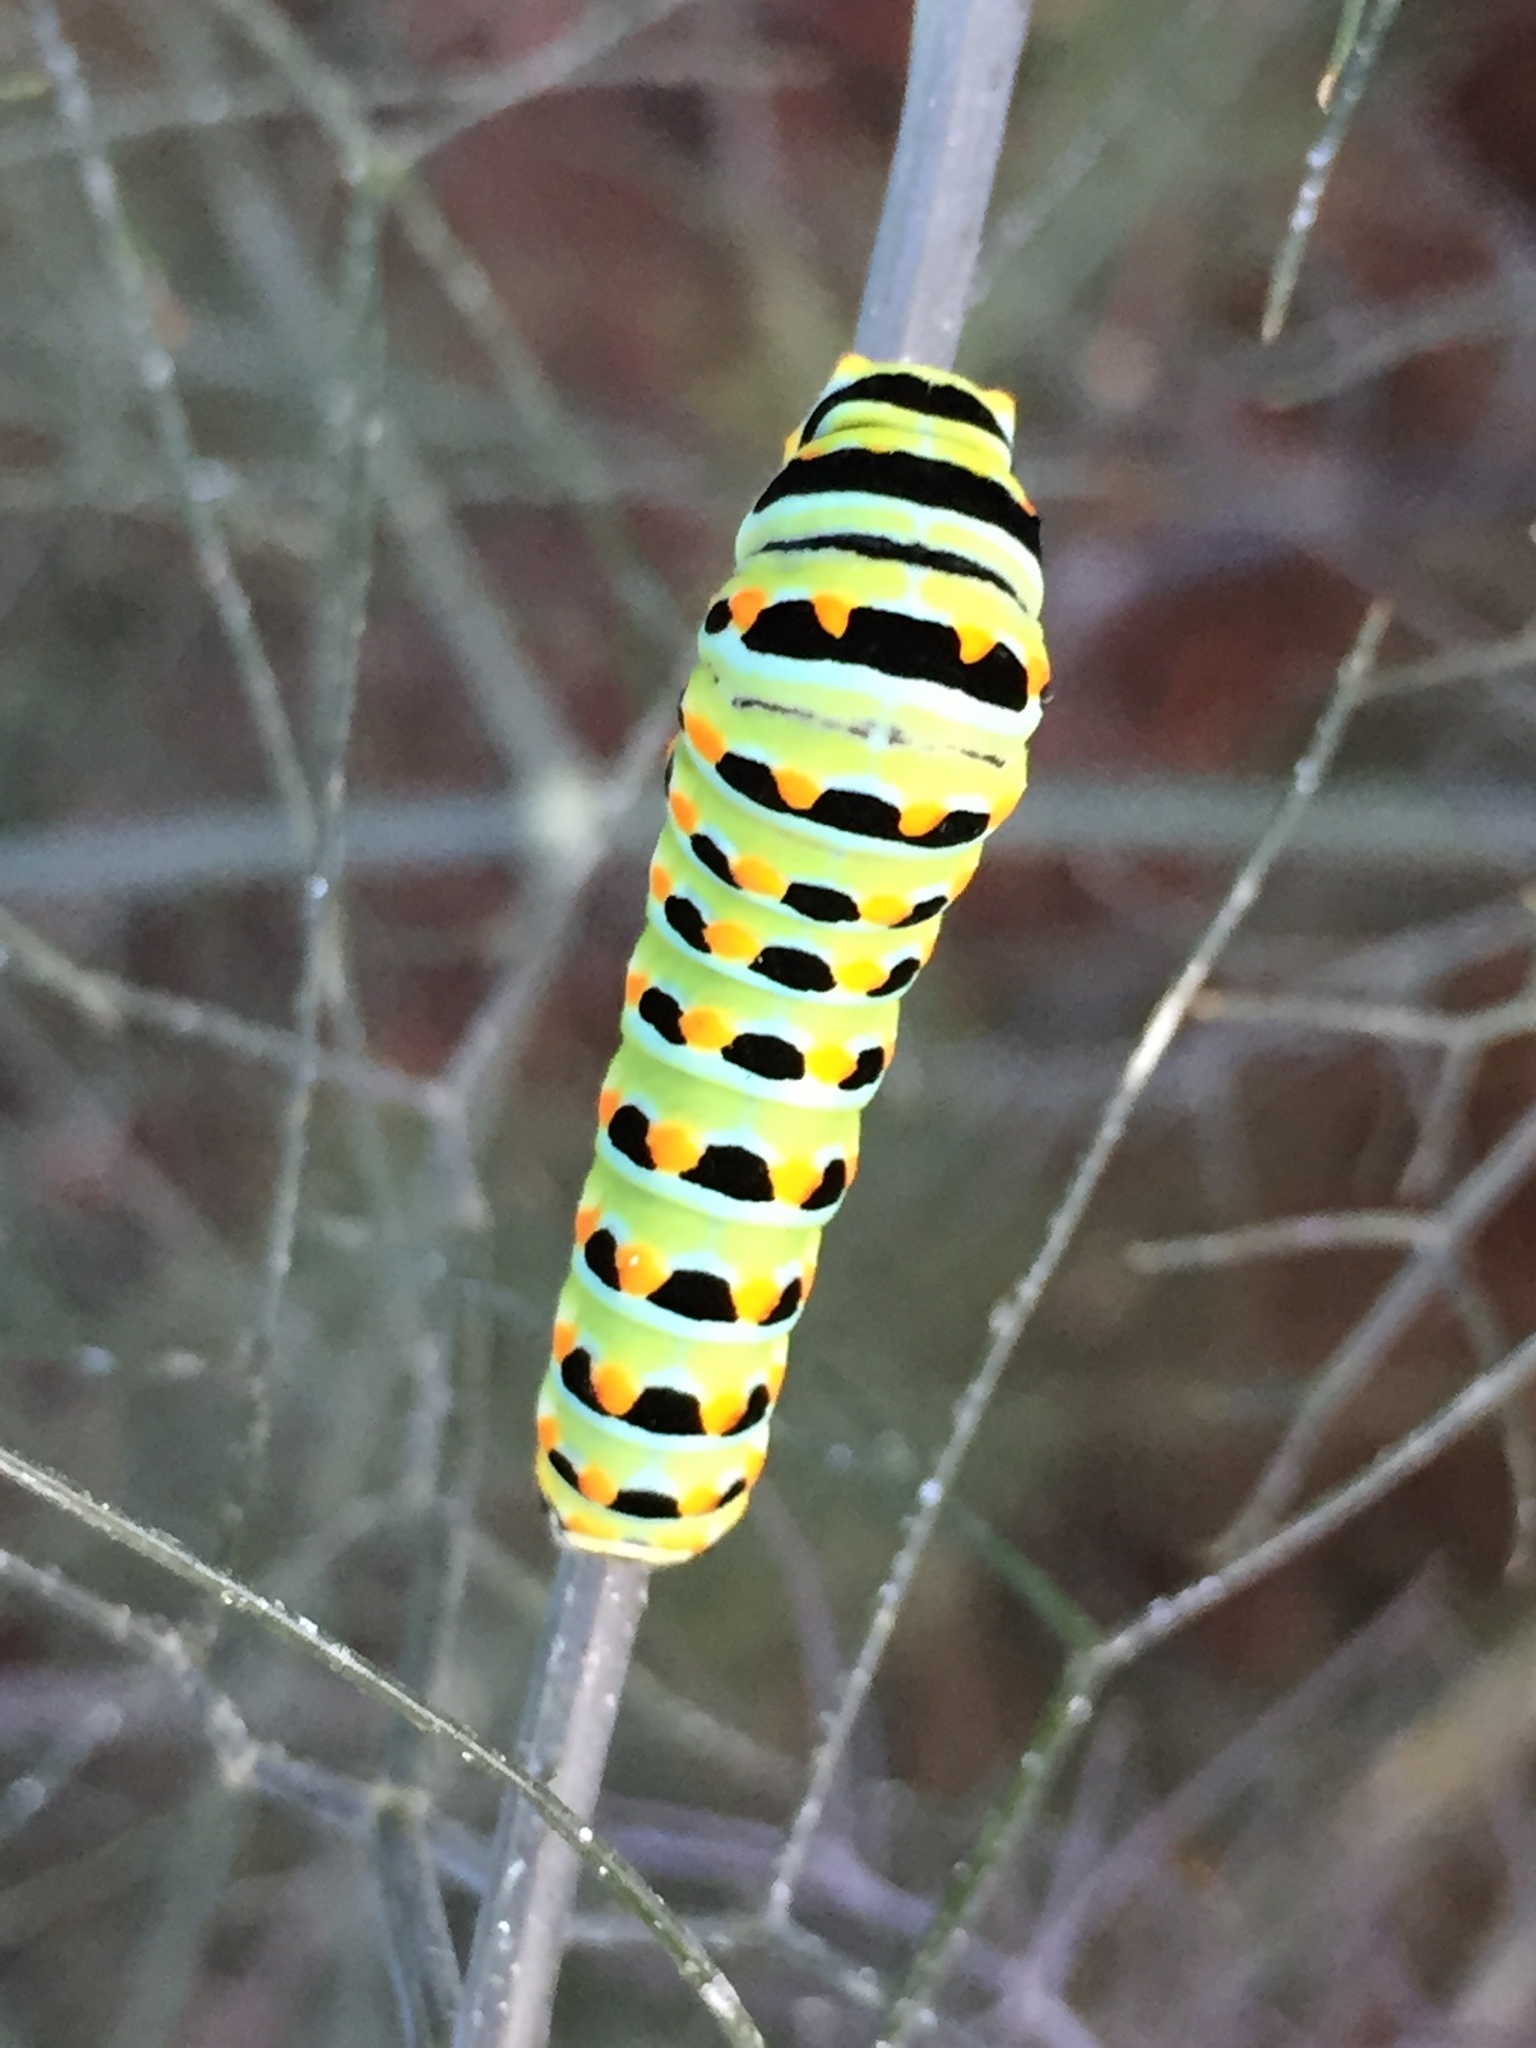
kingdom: Animalia
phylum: Arthropoda
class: Insecta
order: Lepidoptera
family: Papilionidae
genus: Papilio
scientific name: Papilio zelicaon
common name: Anise swallowtail
